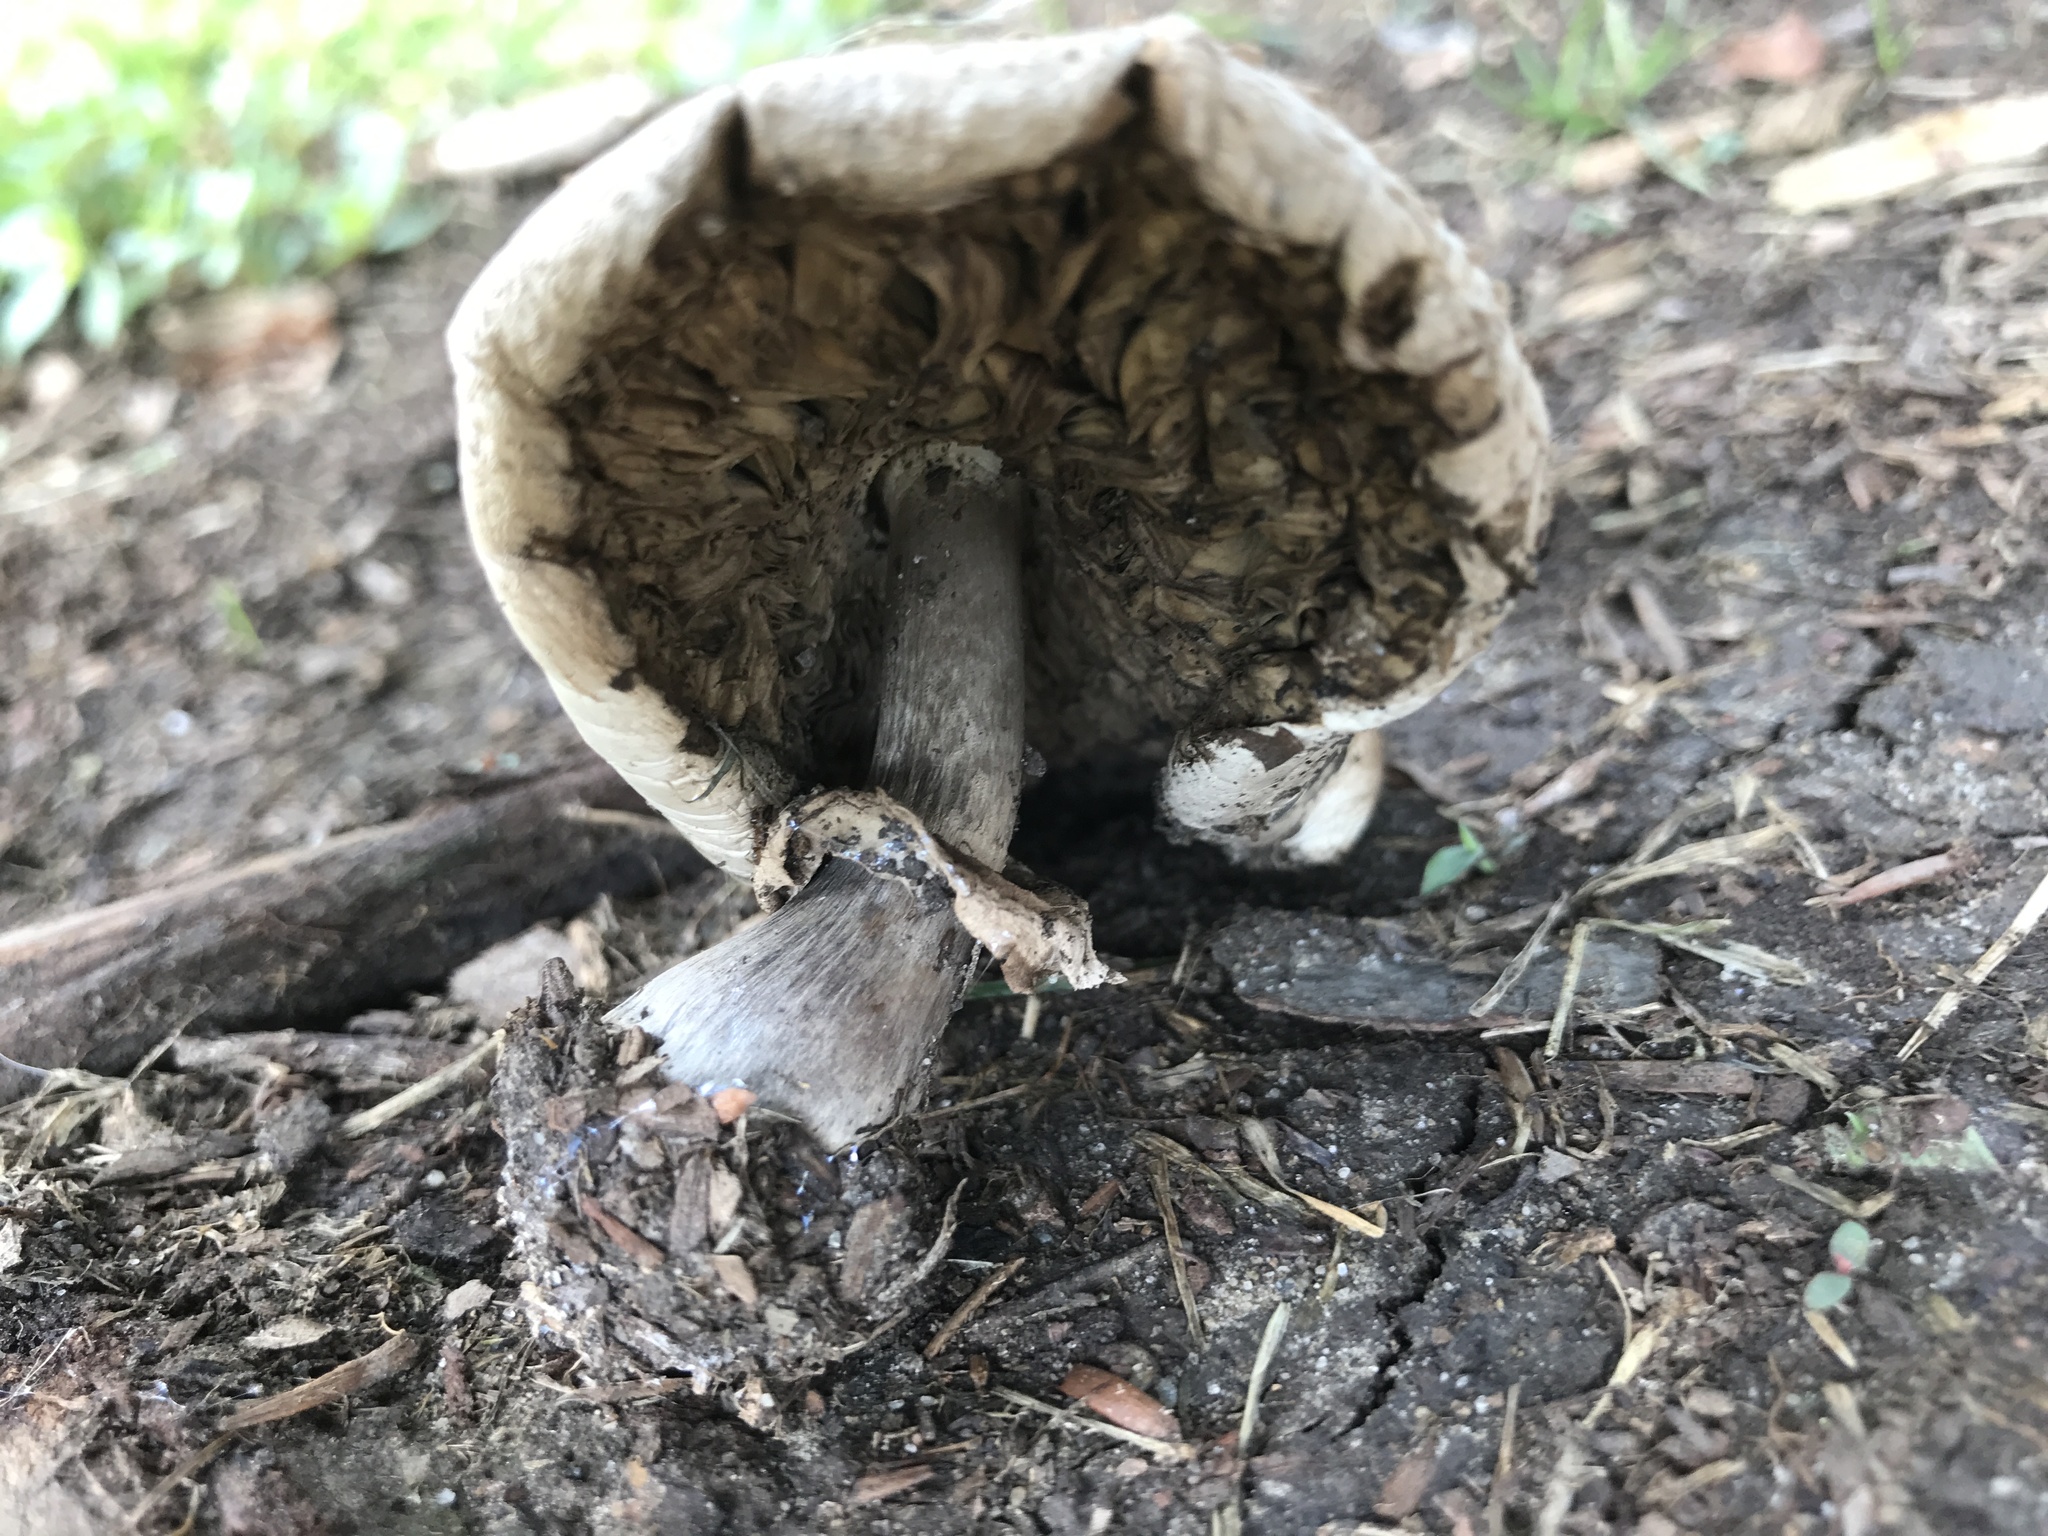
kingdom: Fungi
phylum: Basidiomycota
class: Agaricomycetes
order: Agaricales
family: Agaricaceae
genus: Chlorophyllum
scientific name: Chlorophyllum molybdites
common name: False parasol
